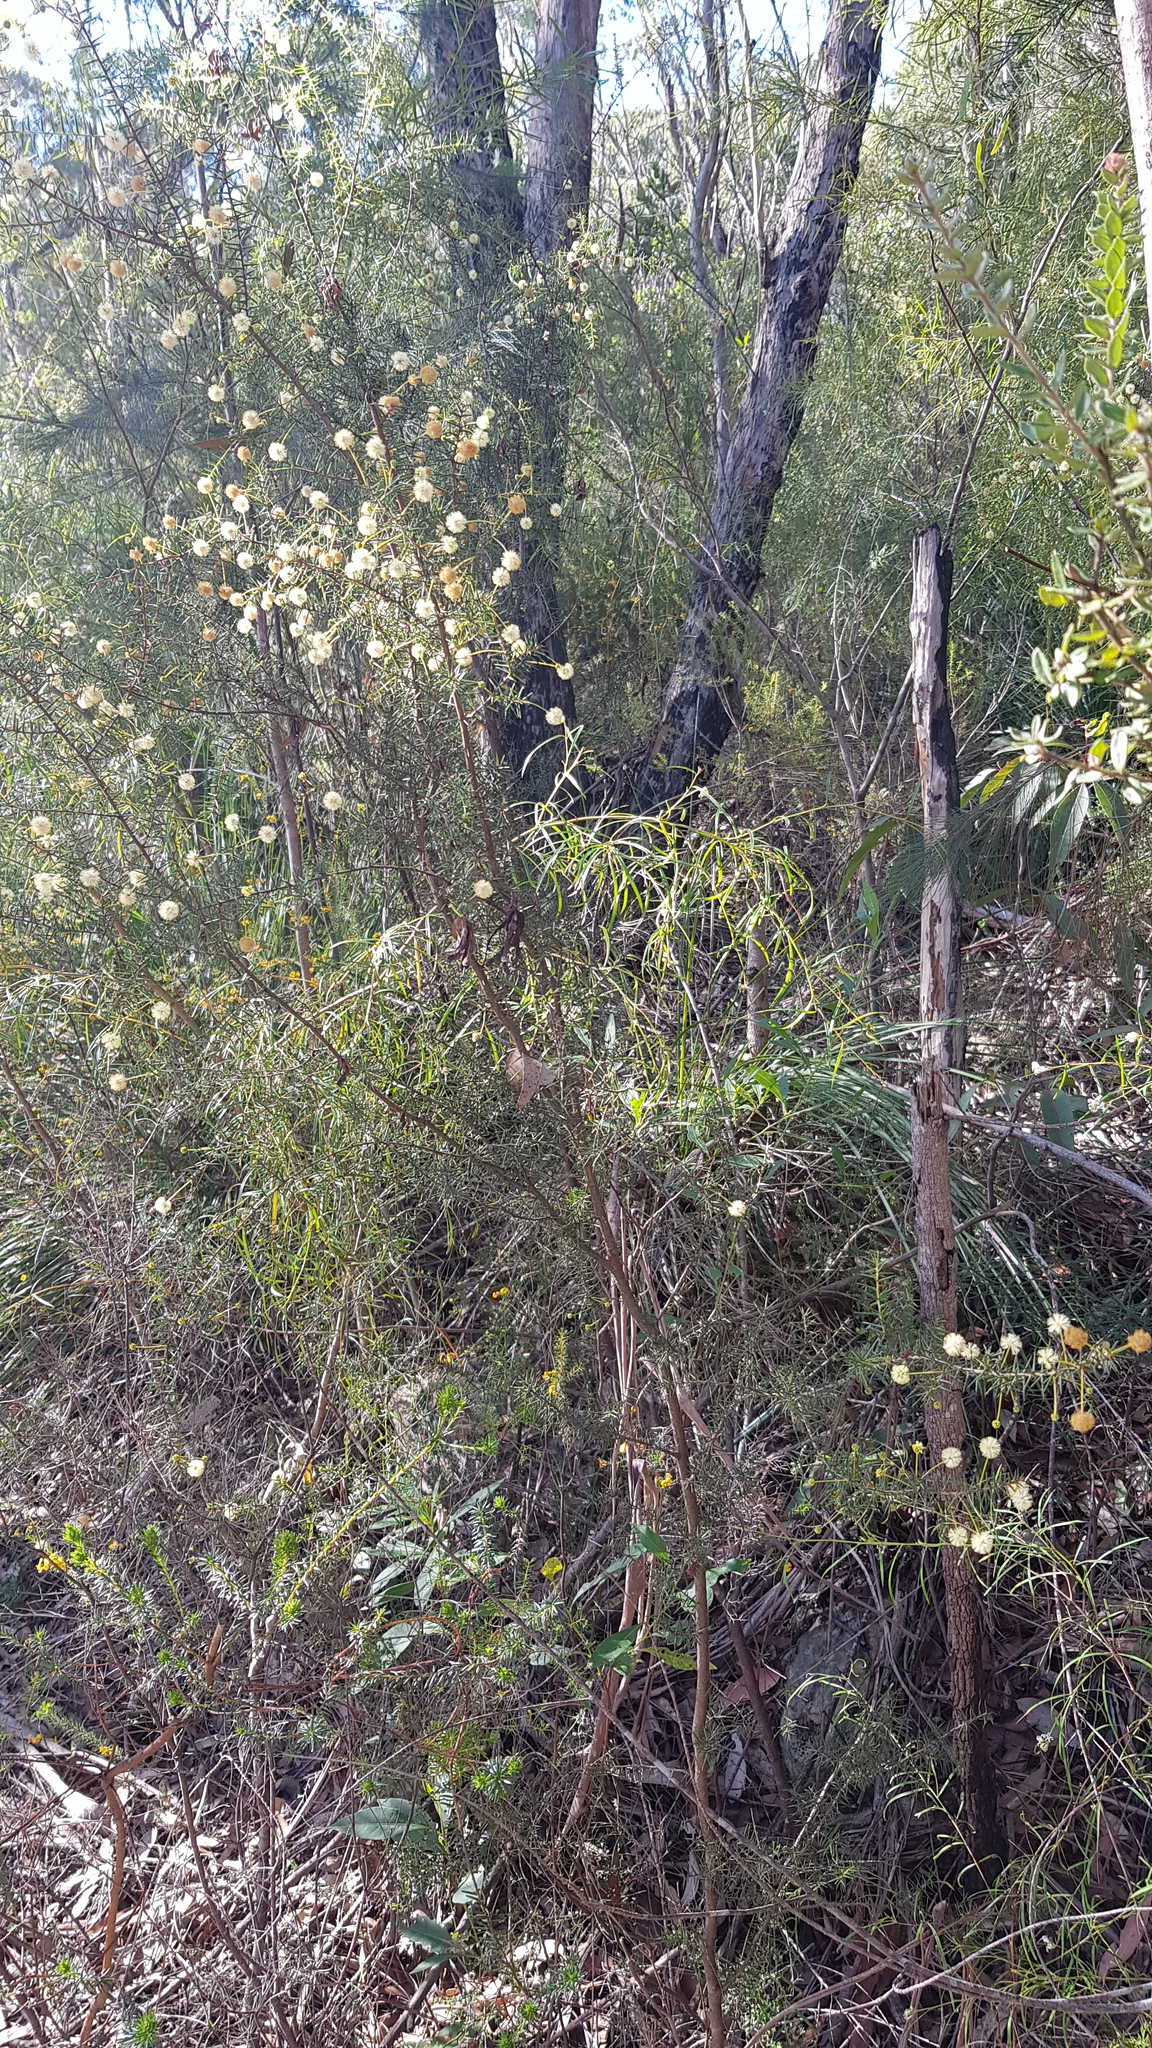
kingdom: Plantae
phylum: Tracheophyta
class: Magnoliopsida
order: Fabales
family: Fabaceae
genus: Acacia
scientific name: Acacia ulicifolia
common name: Juniper wattle
